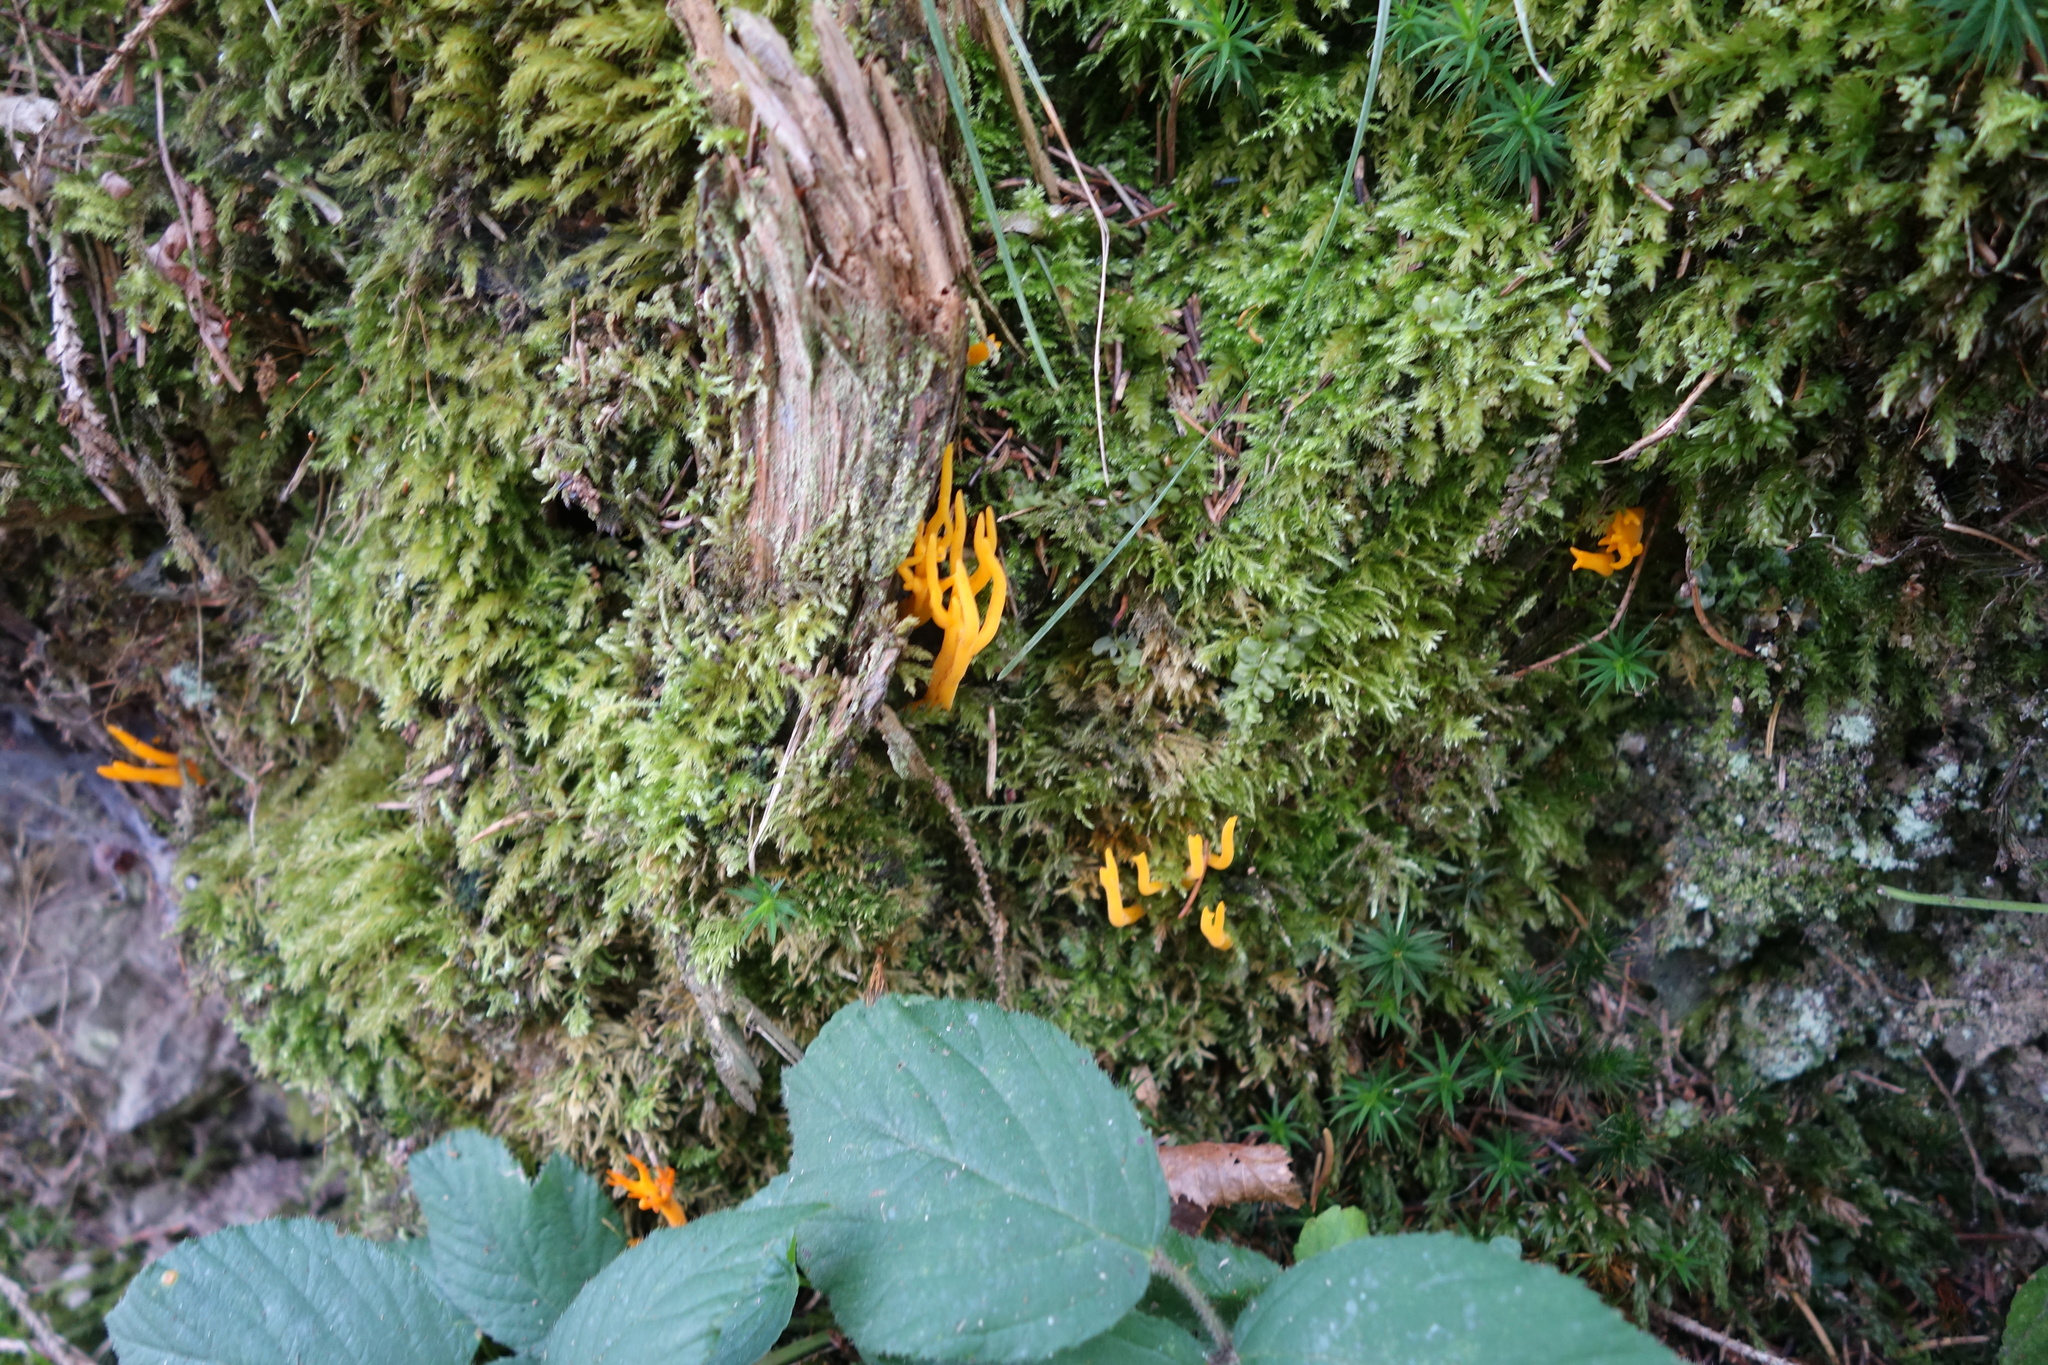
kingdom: Fungi
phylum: Basidiomycota
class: Dacrymycetes
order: Dacrymycetales
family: Dacrymycetaceae
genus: Calocera
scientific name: Calocera viscosa
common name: Yellow stagshorn
